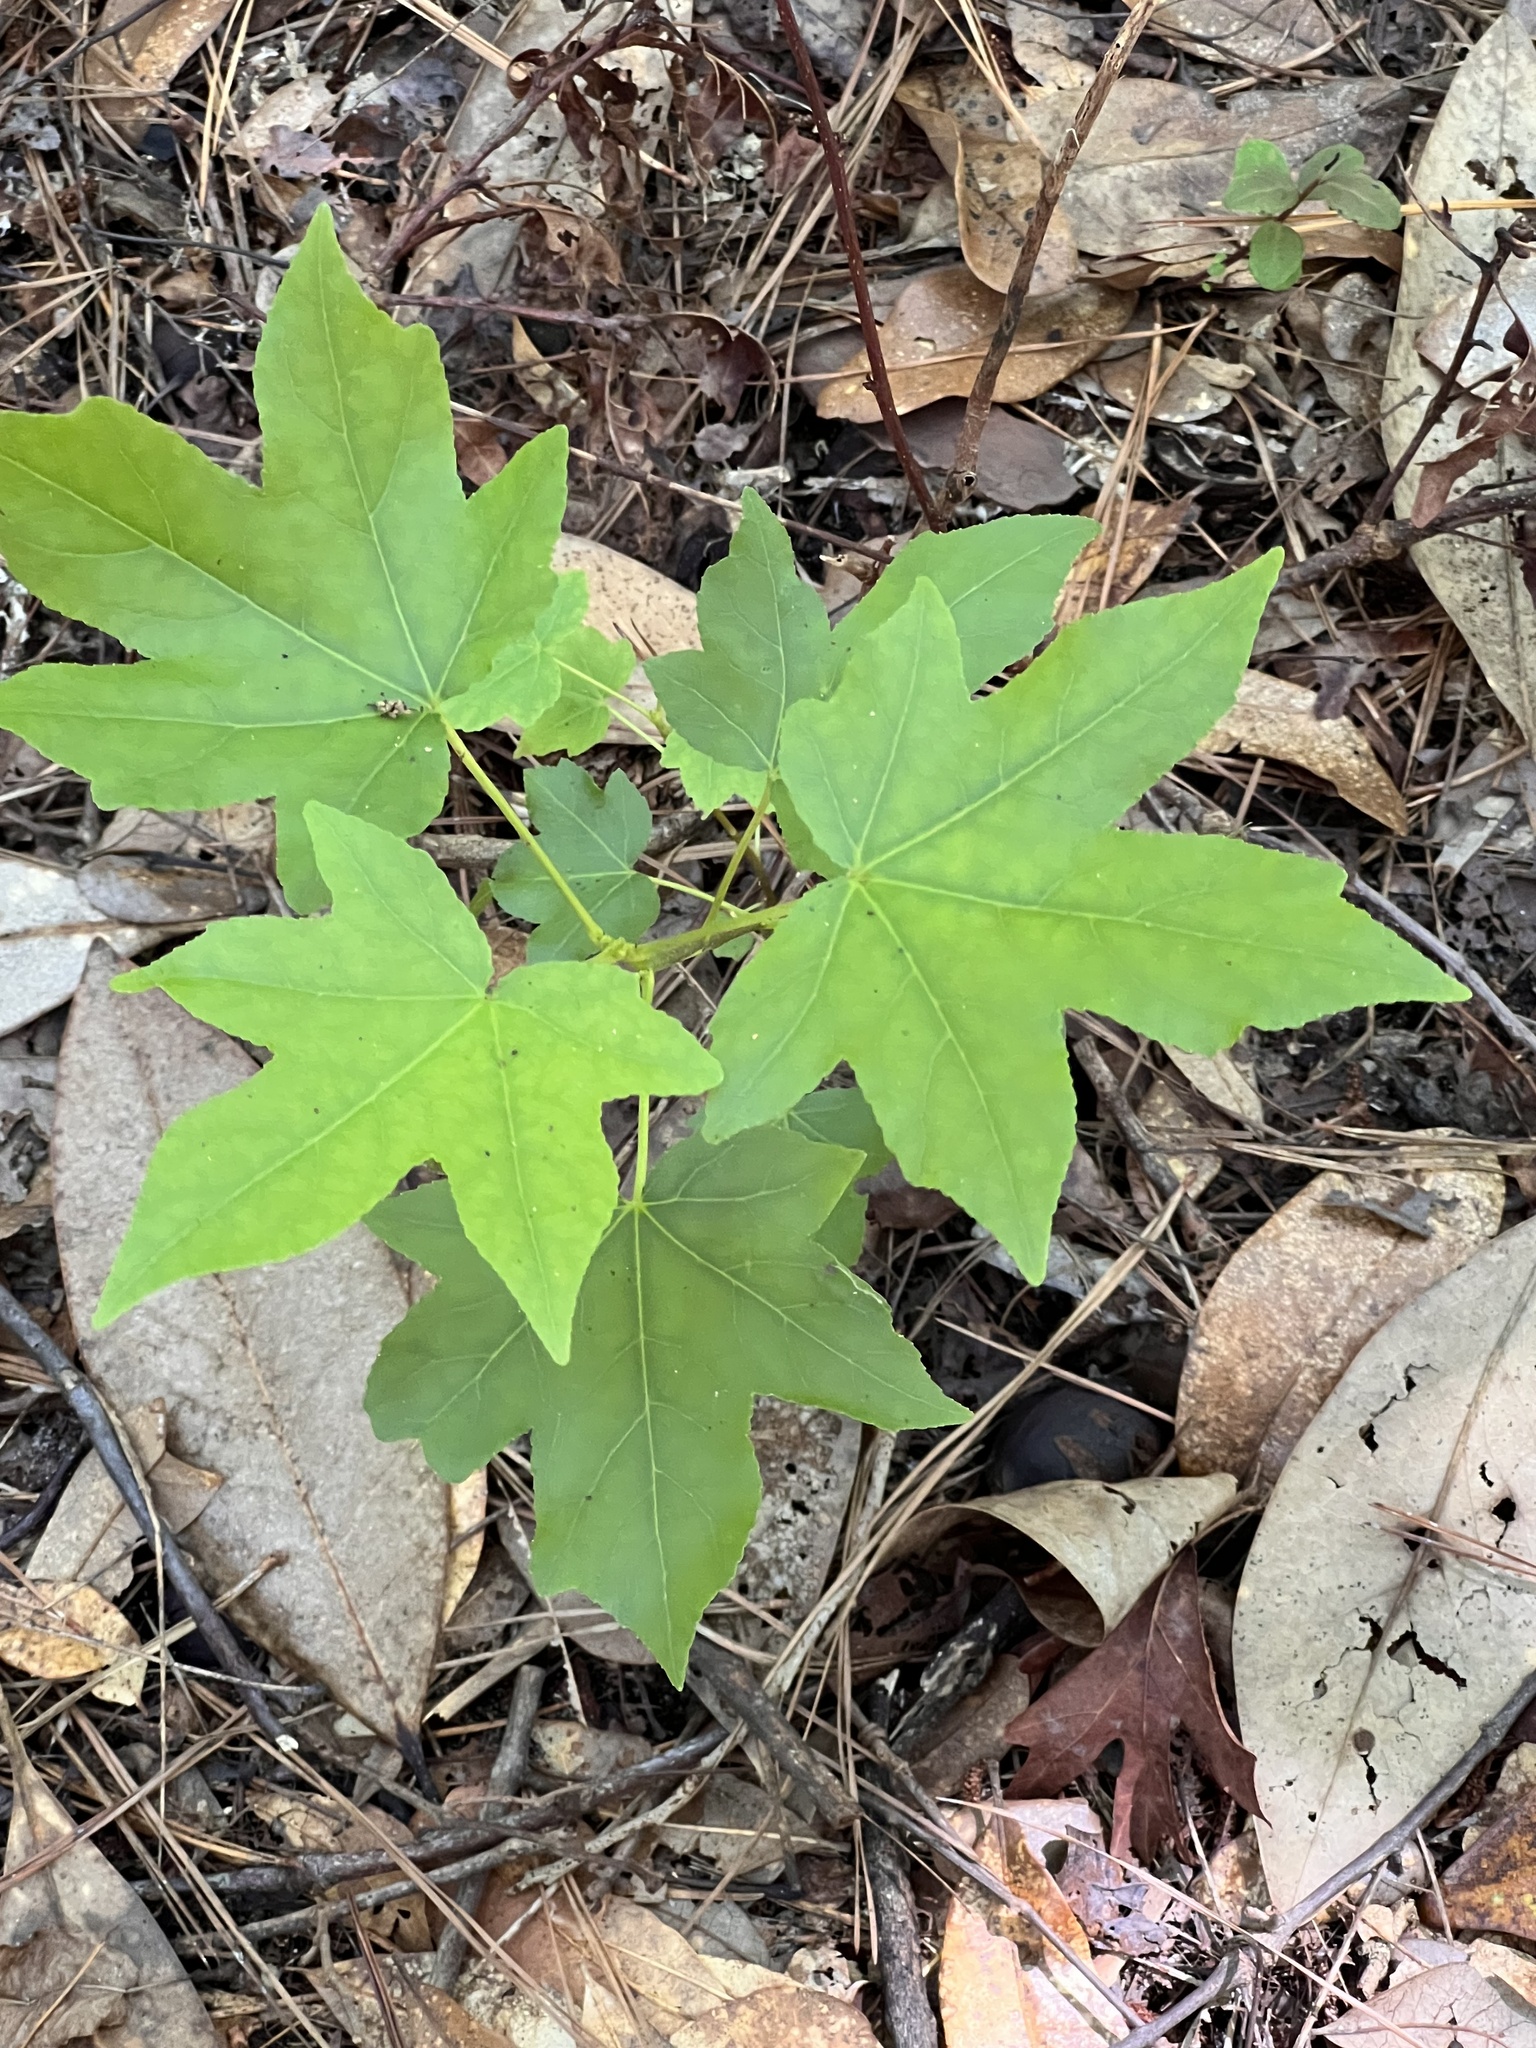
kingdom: Plantae
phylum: Tracheophyta
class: Magnoliopsida
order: Saxifragales
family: Altingiaceae
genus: Liquidambar
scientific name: Liquidambar styraciflua
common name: Sweet gum
